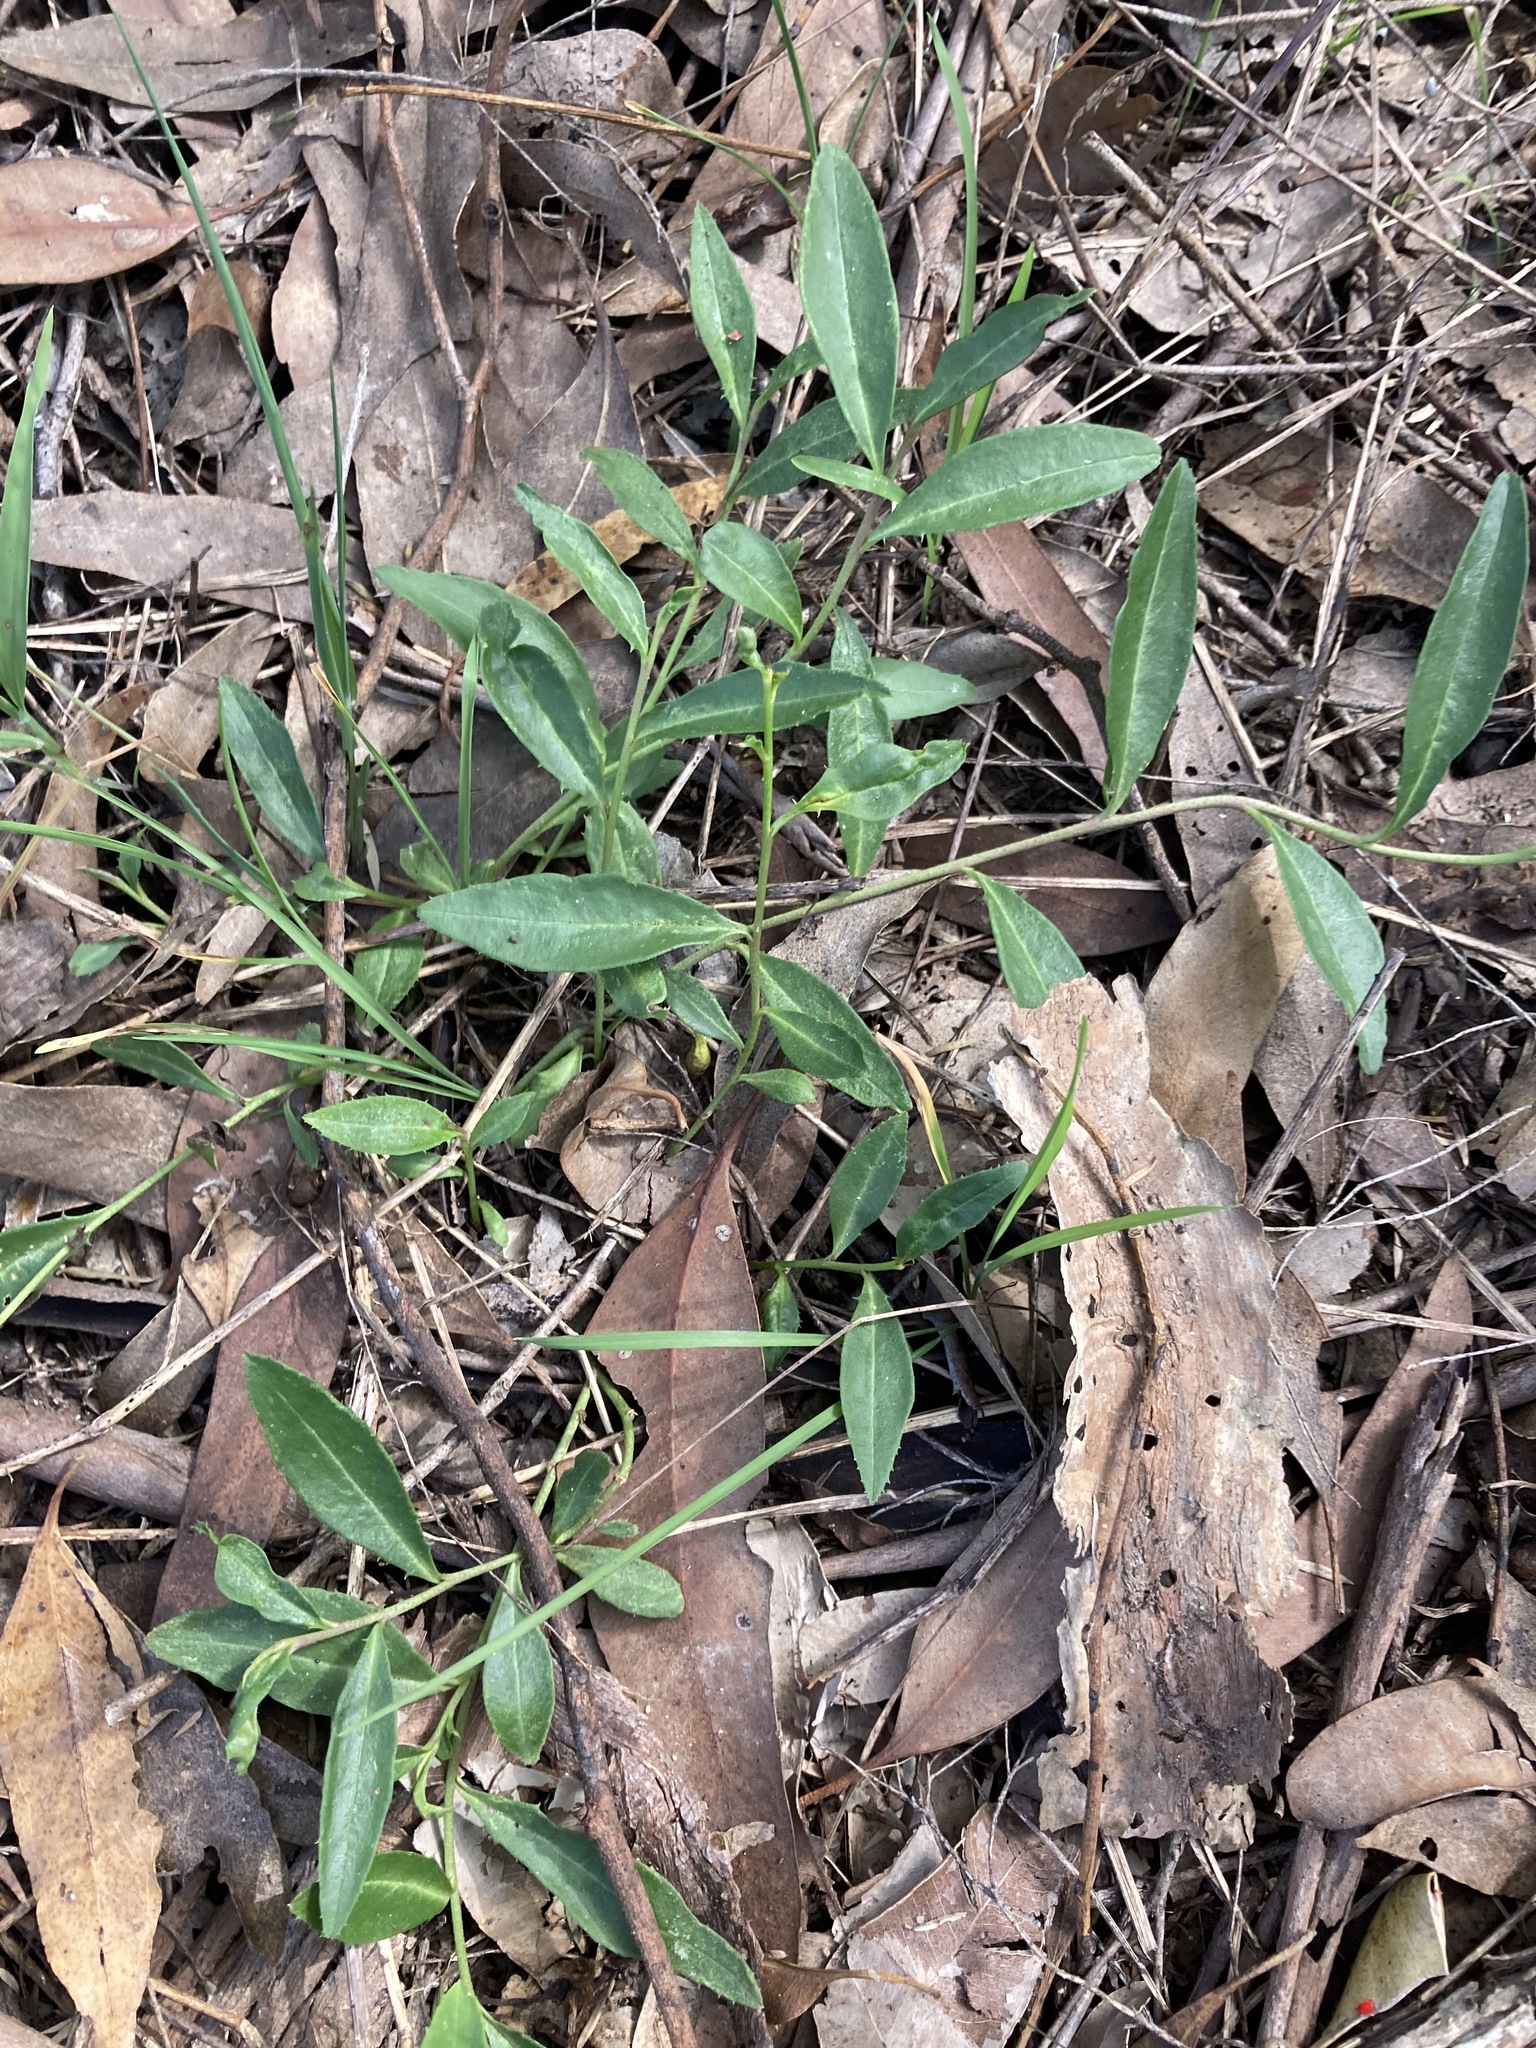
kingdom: Plantae
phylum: Tracheophyta
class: Magnoliopsida
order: Lamiales
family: Scrophulariaceae
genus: Eremophila
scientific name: Eremophila debilis
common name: Winter-apple
